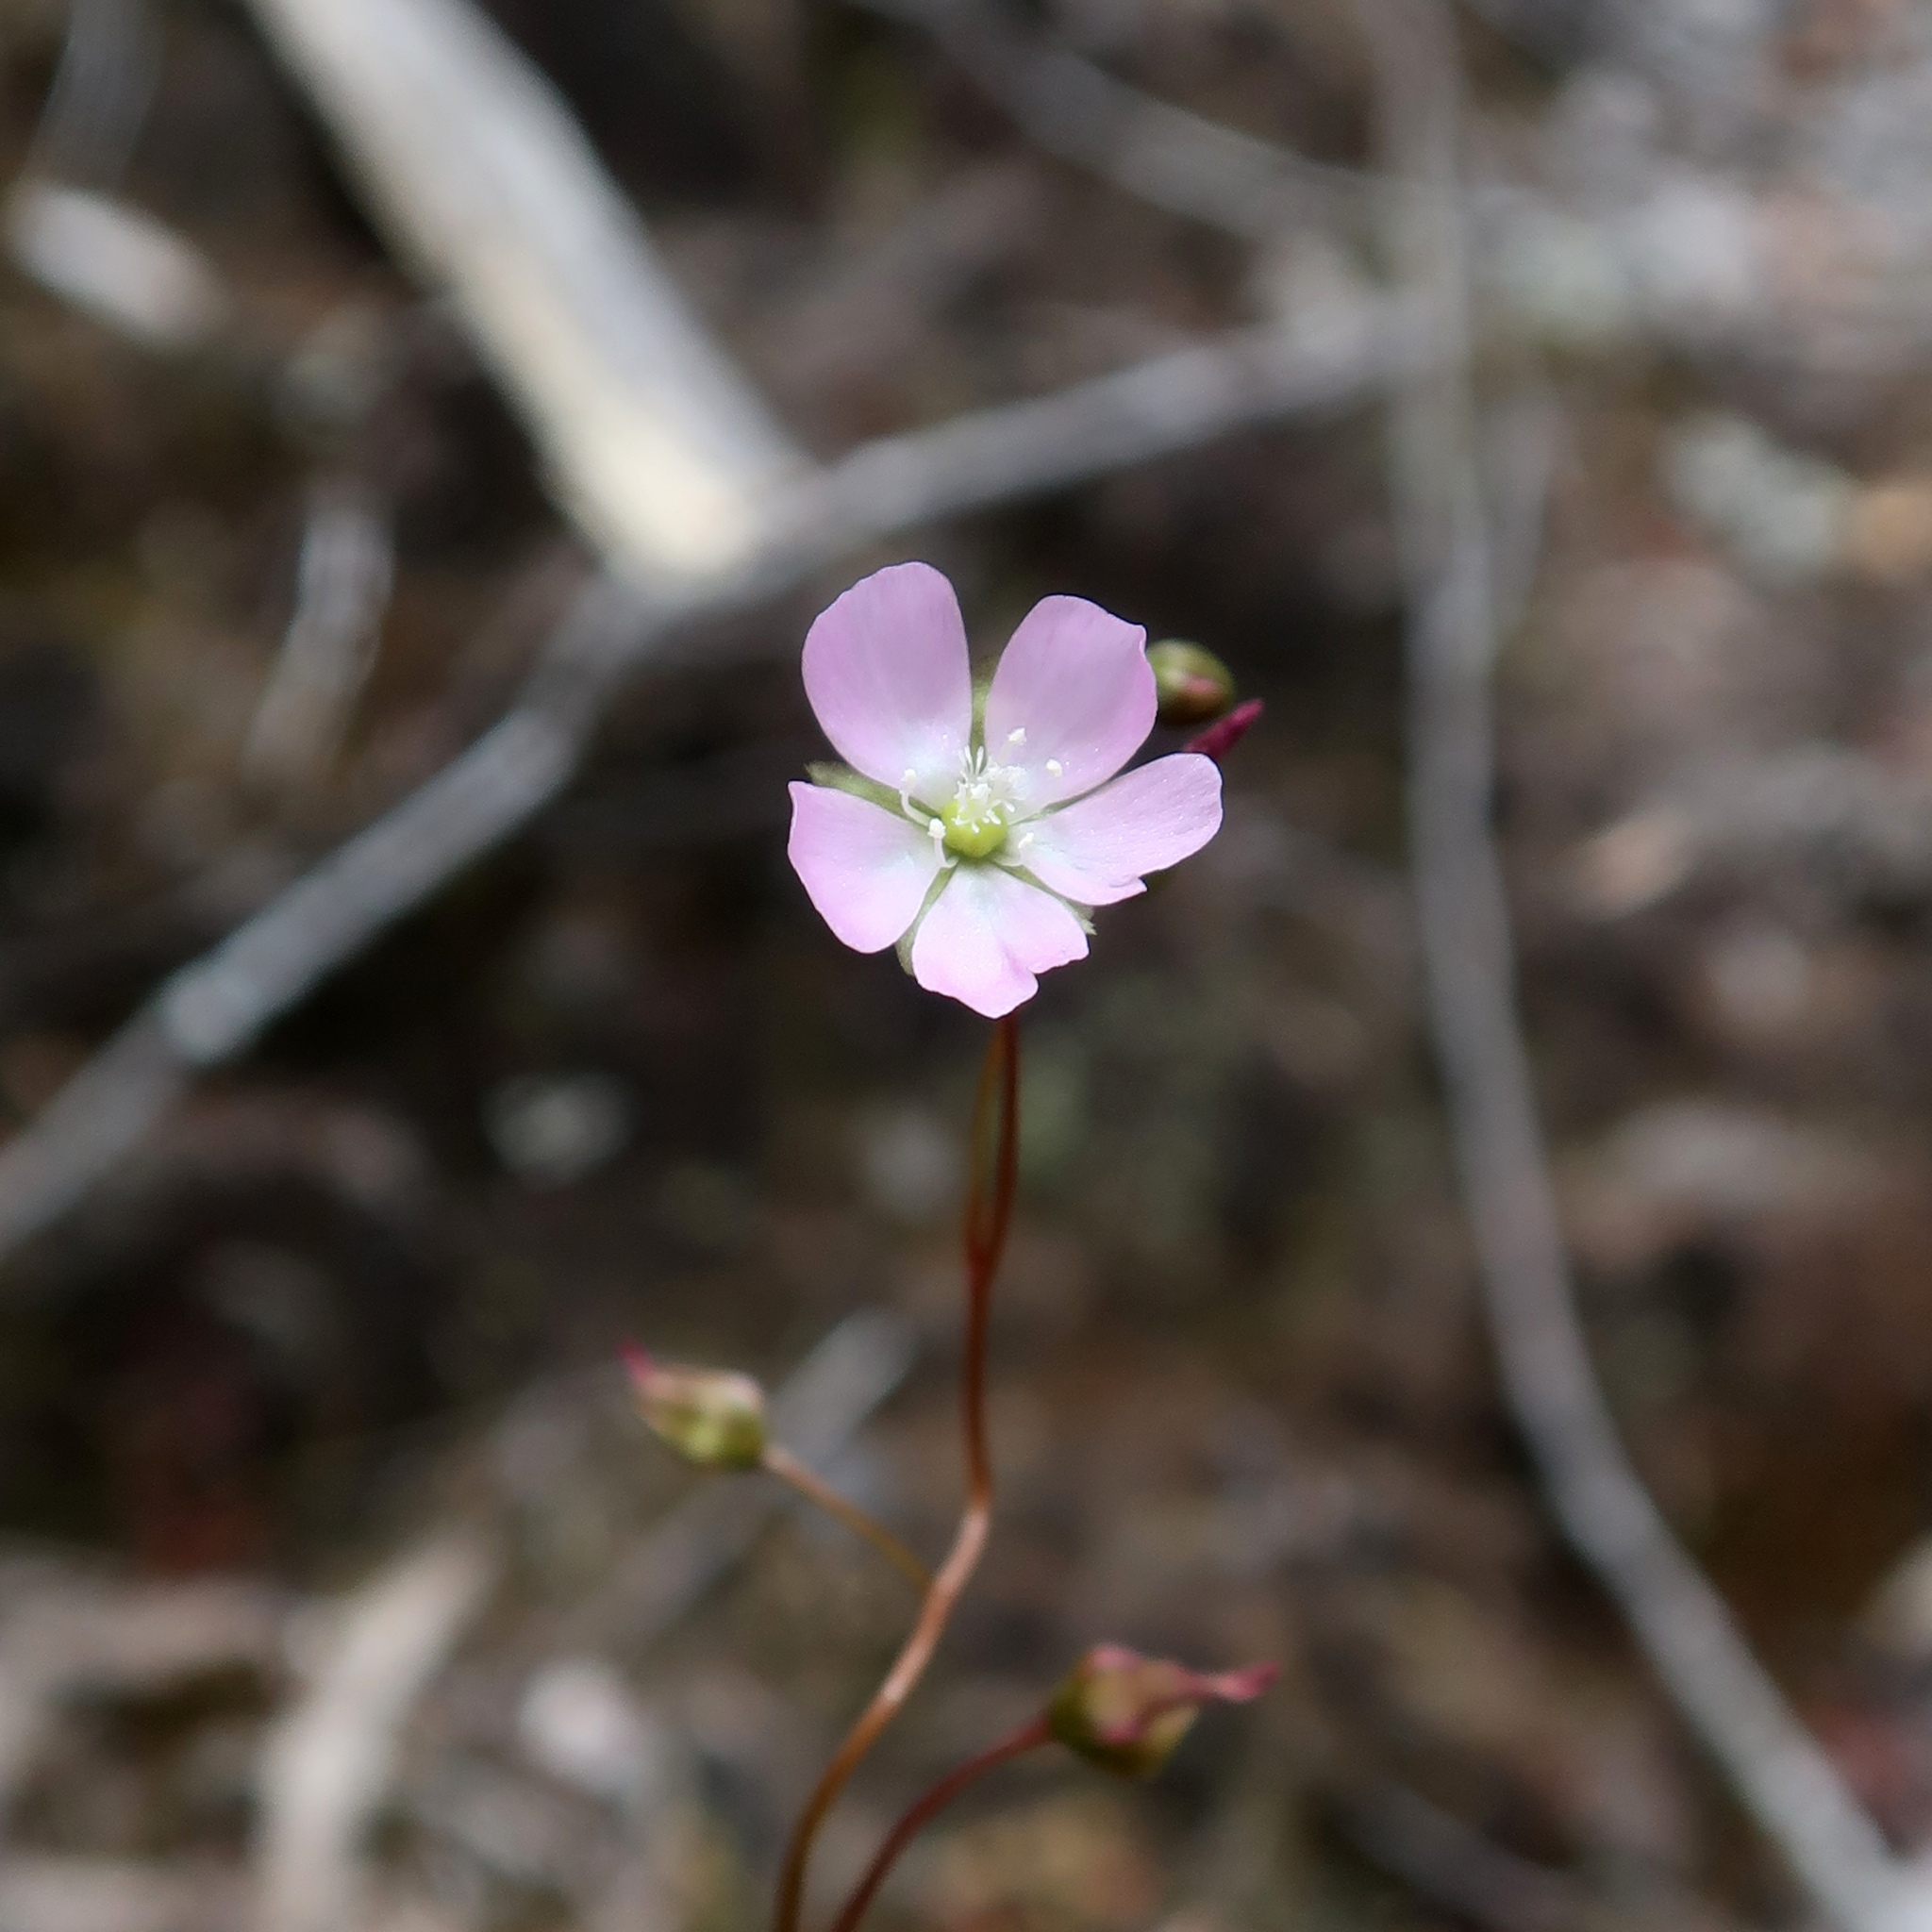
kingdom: Plantae
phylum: Tracheophyta
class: Magnoliopsida
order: Caryophyllales
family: Droseraceae
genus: Drosera
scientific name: Drosera peltata
